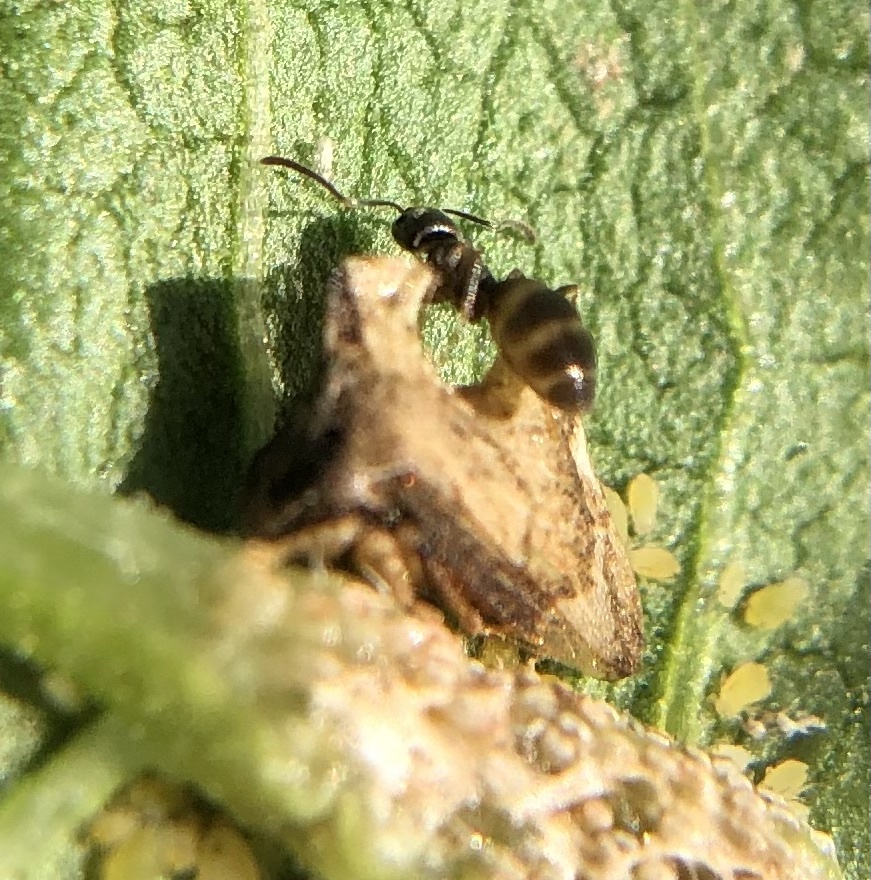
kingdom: Animalia
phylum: Arthropoda
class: Insecta
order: Hymenoptera
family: Formicidae
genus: Tapinoma
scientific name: Tapinoma sessile
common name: Odorous house ant
